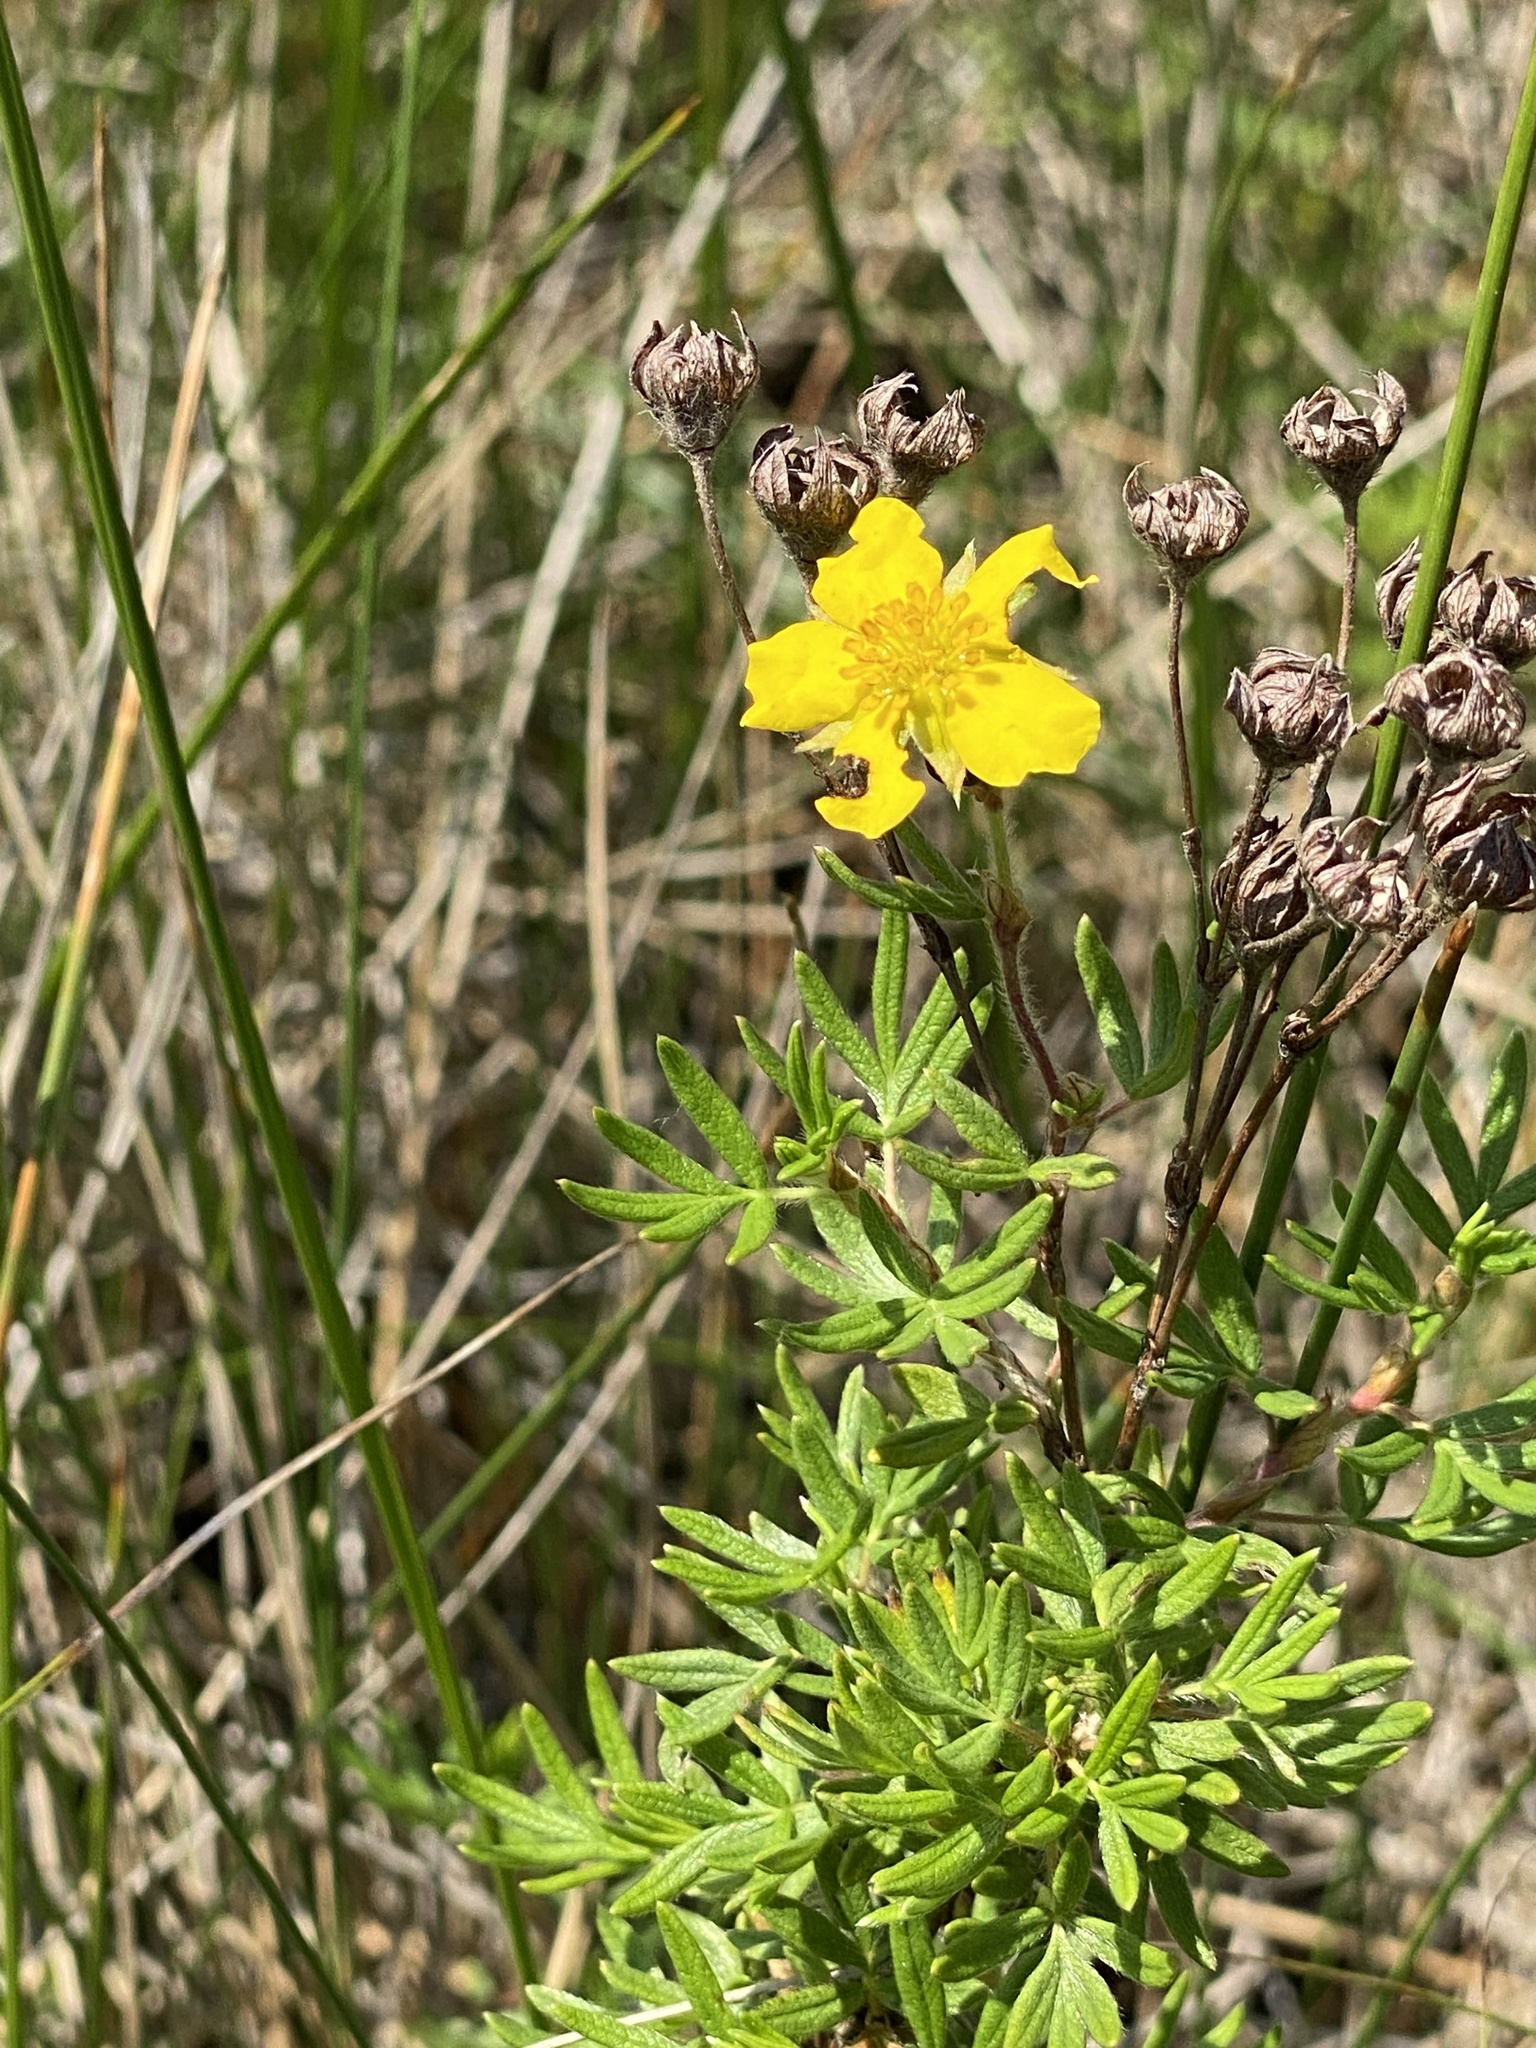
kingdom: Plantae
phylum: Tracheophyta
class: Magnoliopsida
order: Rosales
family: Rosaceae
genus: Dasiphora
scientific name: Dasiphora fruticosa
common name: Shrubby cinquefoil
